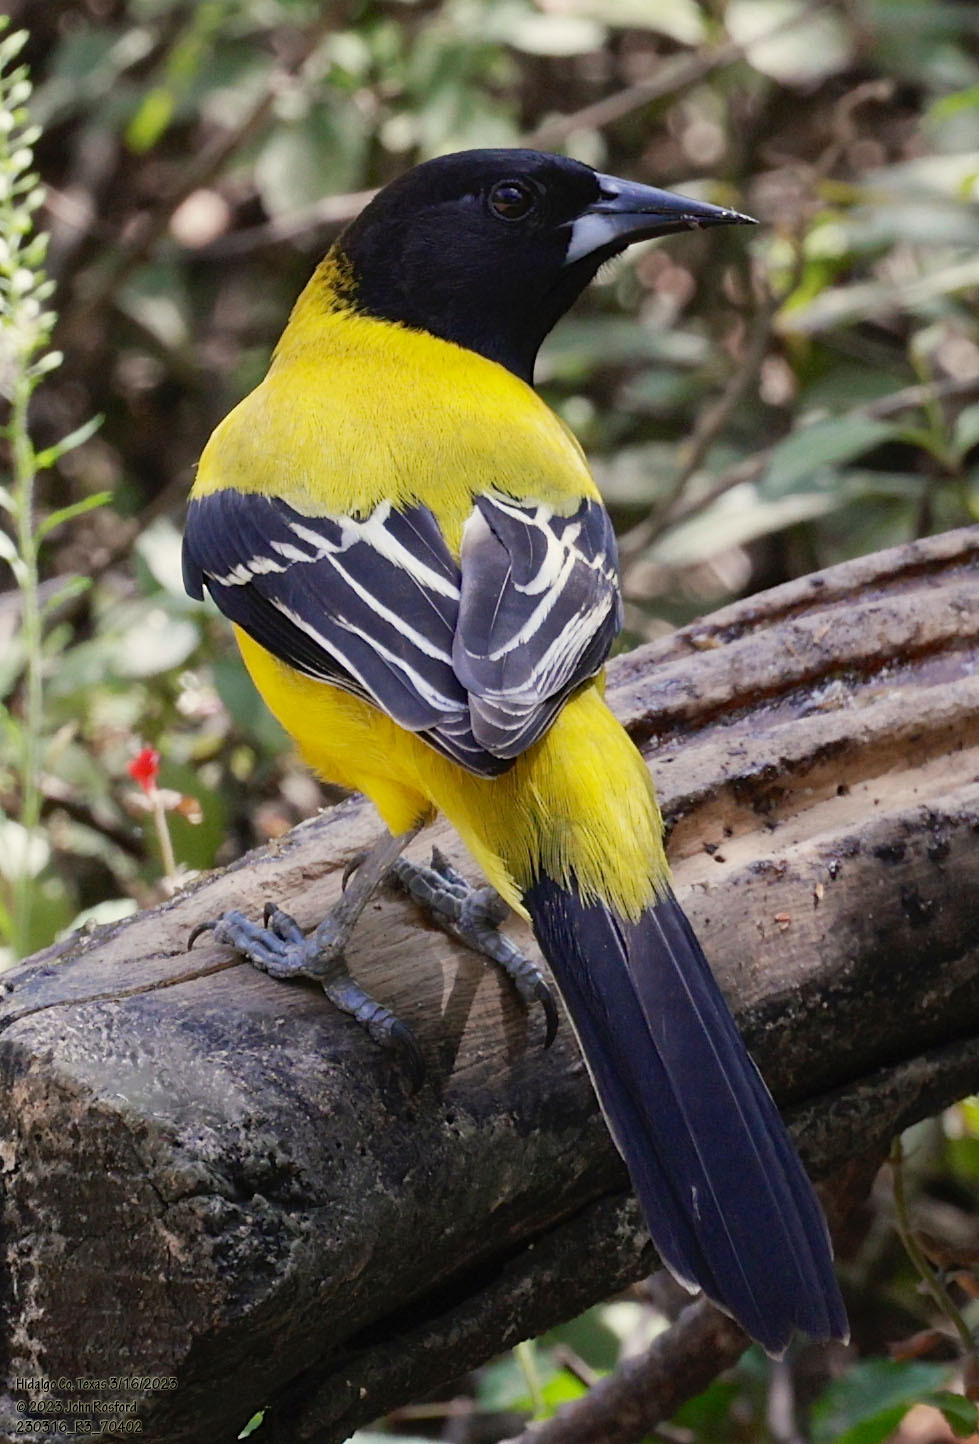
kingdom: Animalia
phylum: Chordata
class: Aves
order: Passeriformes
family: Icteridae
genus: Icterus
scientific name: Icterus graduacauda
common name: Audubon's oriole
